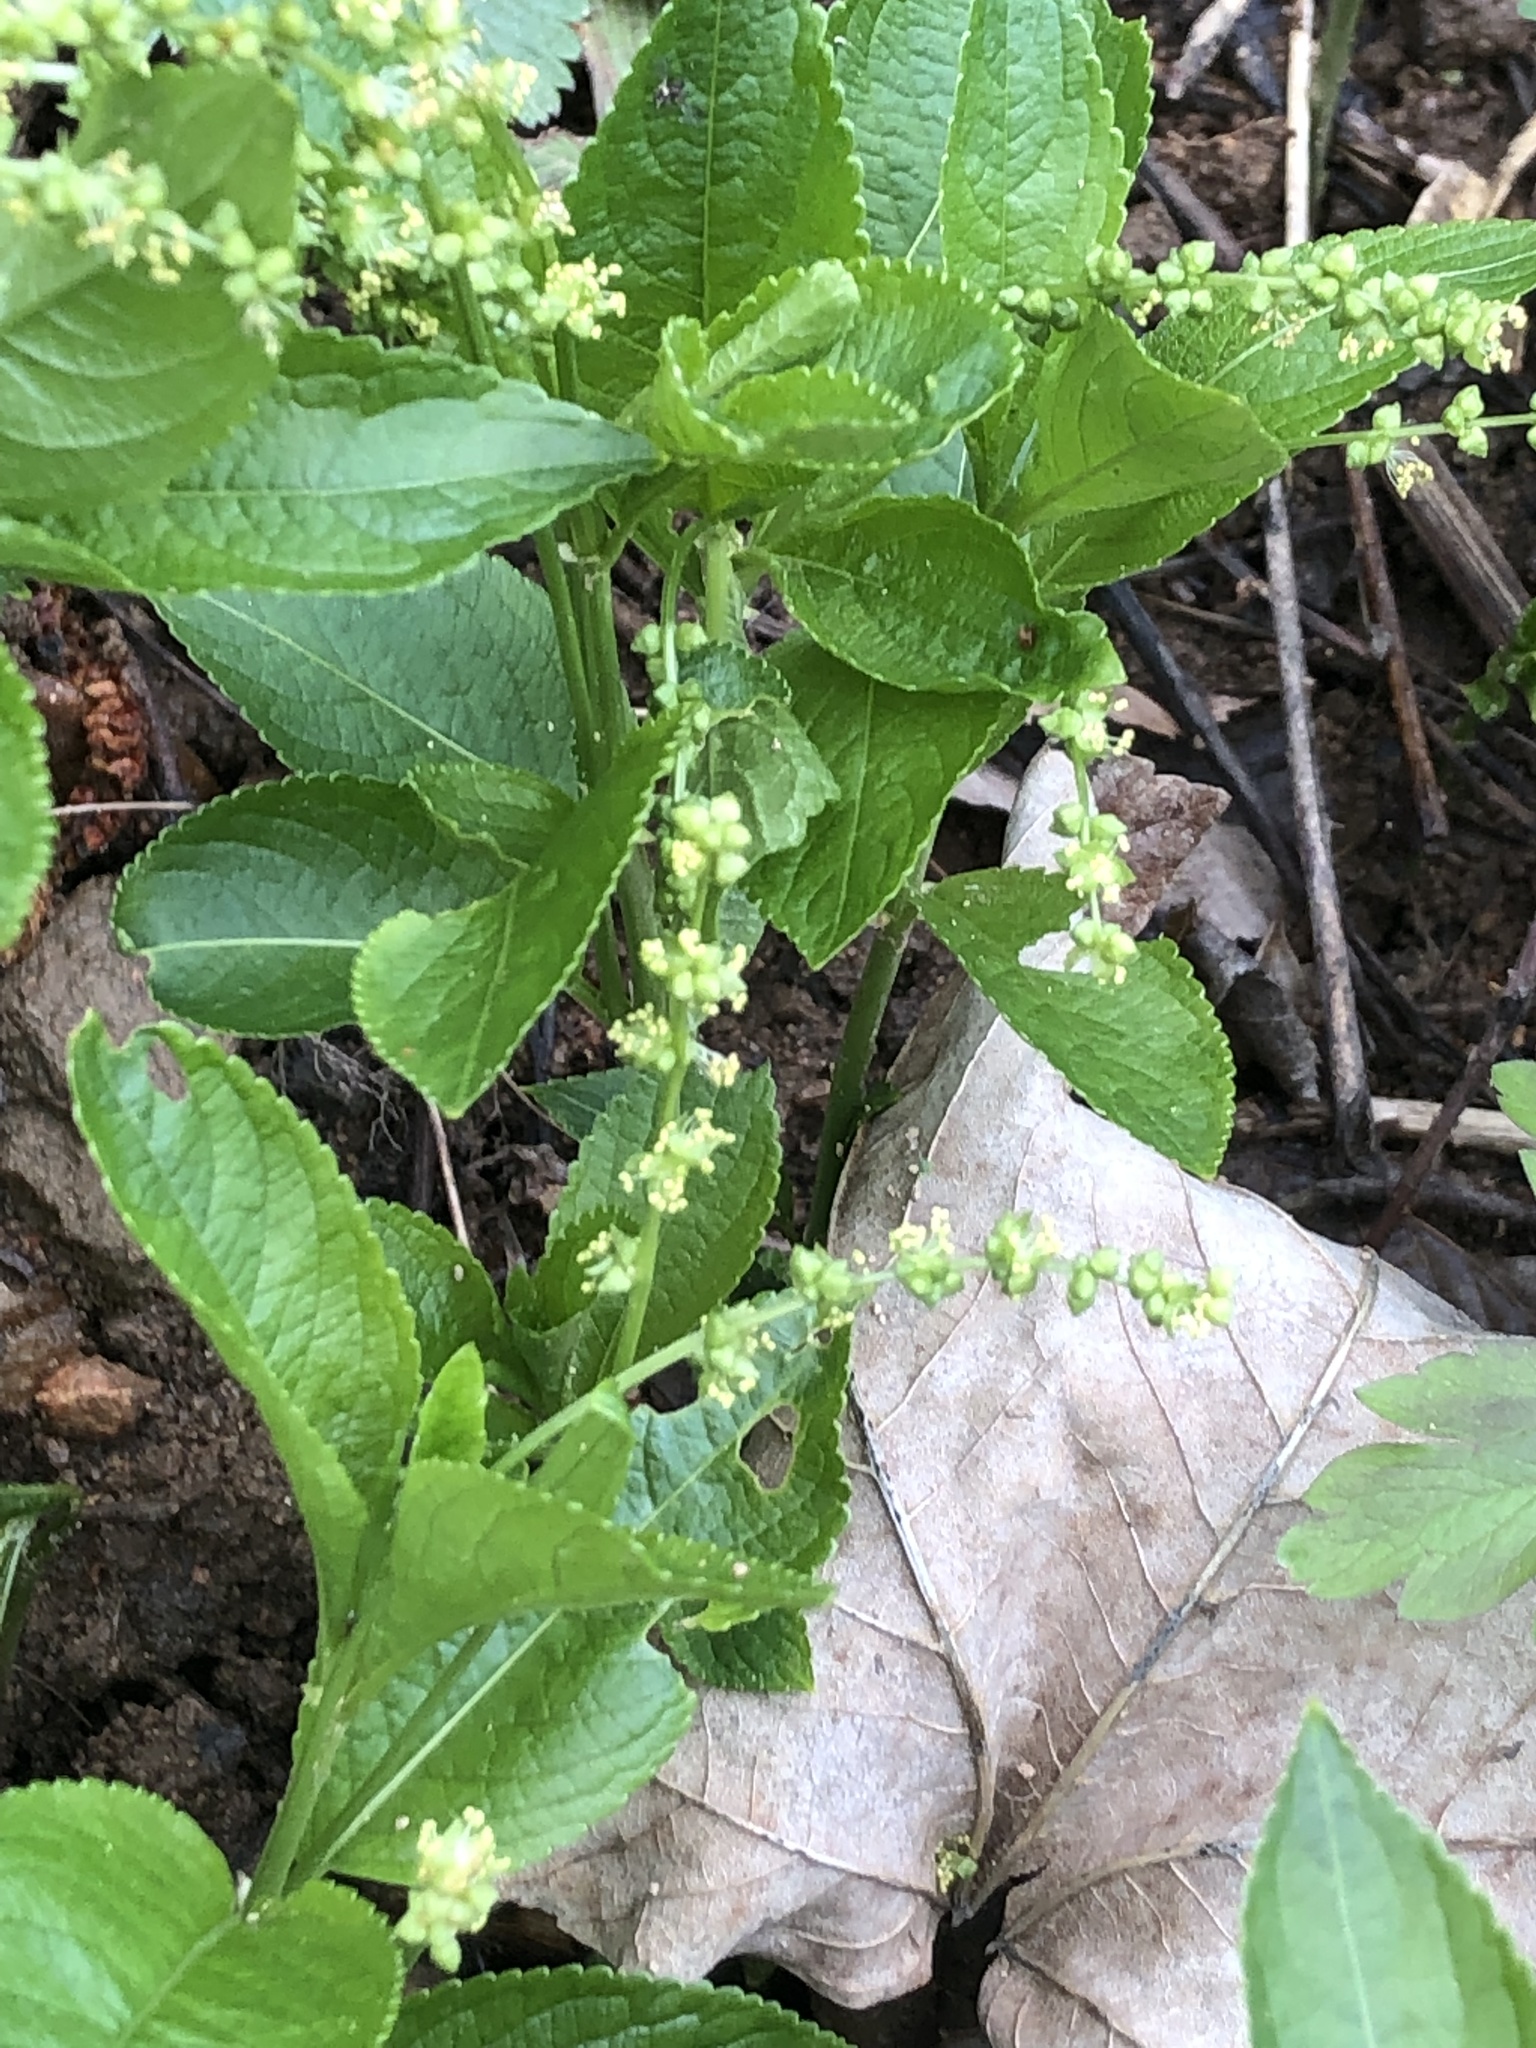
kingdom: Plantae
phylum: Tracheophyta
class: Magnoliopsida
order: Malpighiales
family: Euphorbiaceae
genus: Mercurialis
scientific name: Mercurialis perennis
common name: Dog mercury
